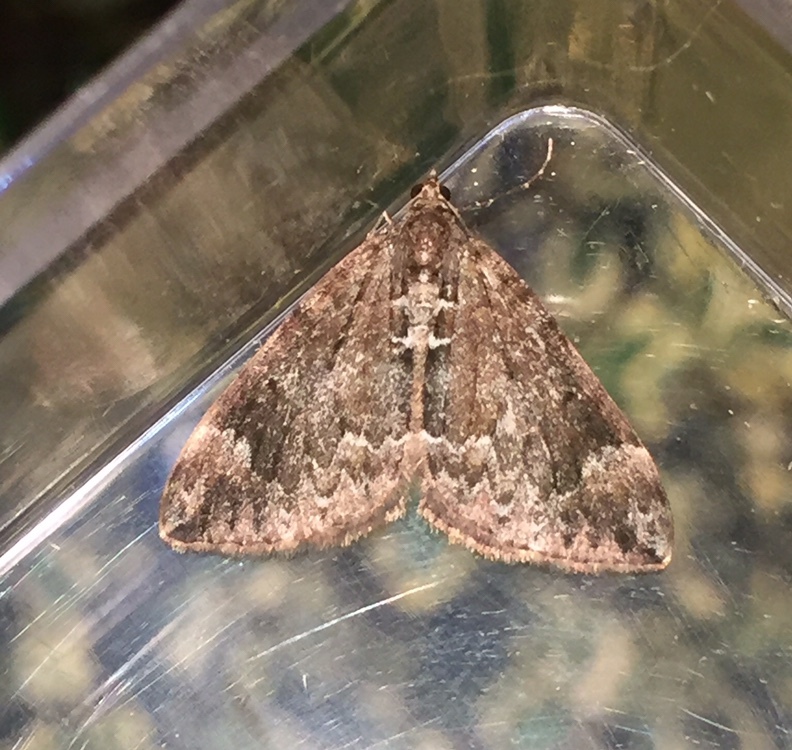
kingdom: Animalia
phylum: Arthropoda
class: Insecta
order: Lepidoptera
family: Geometridae
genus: Dysstroma
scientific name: Dysstroma truncata
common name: Common marbled carpet
